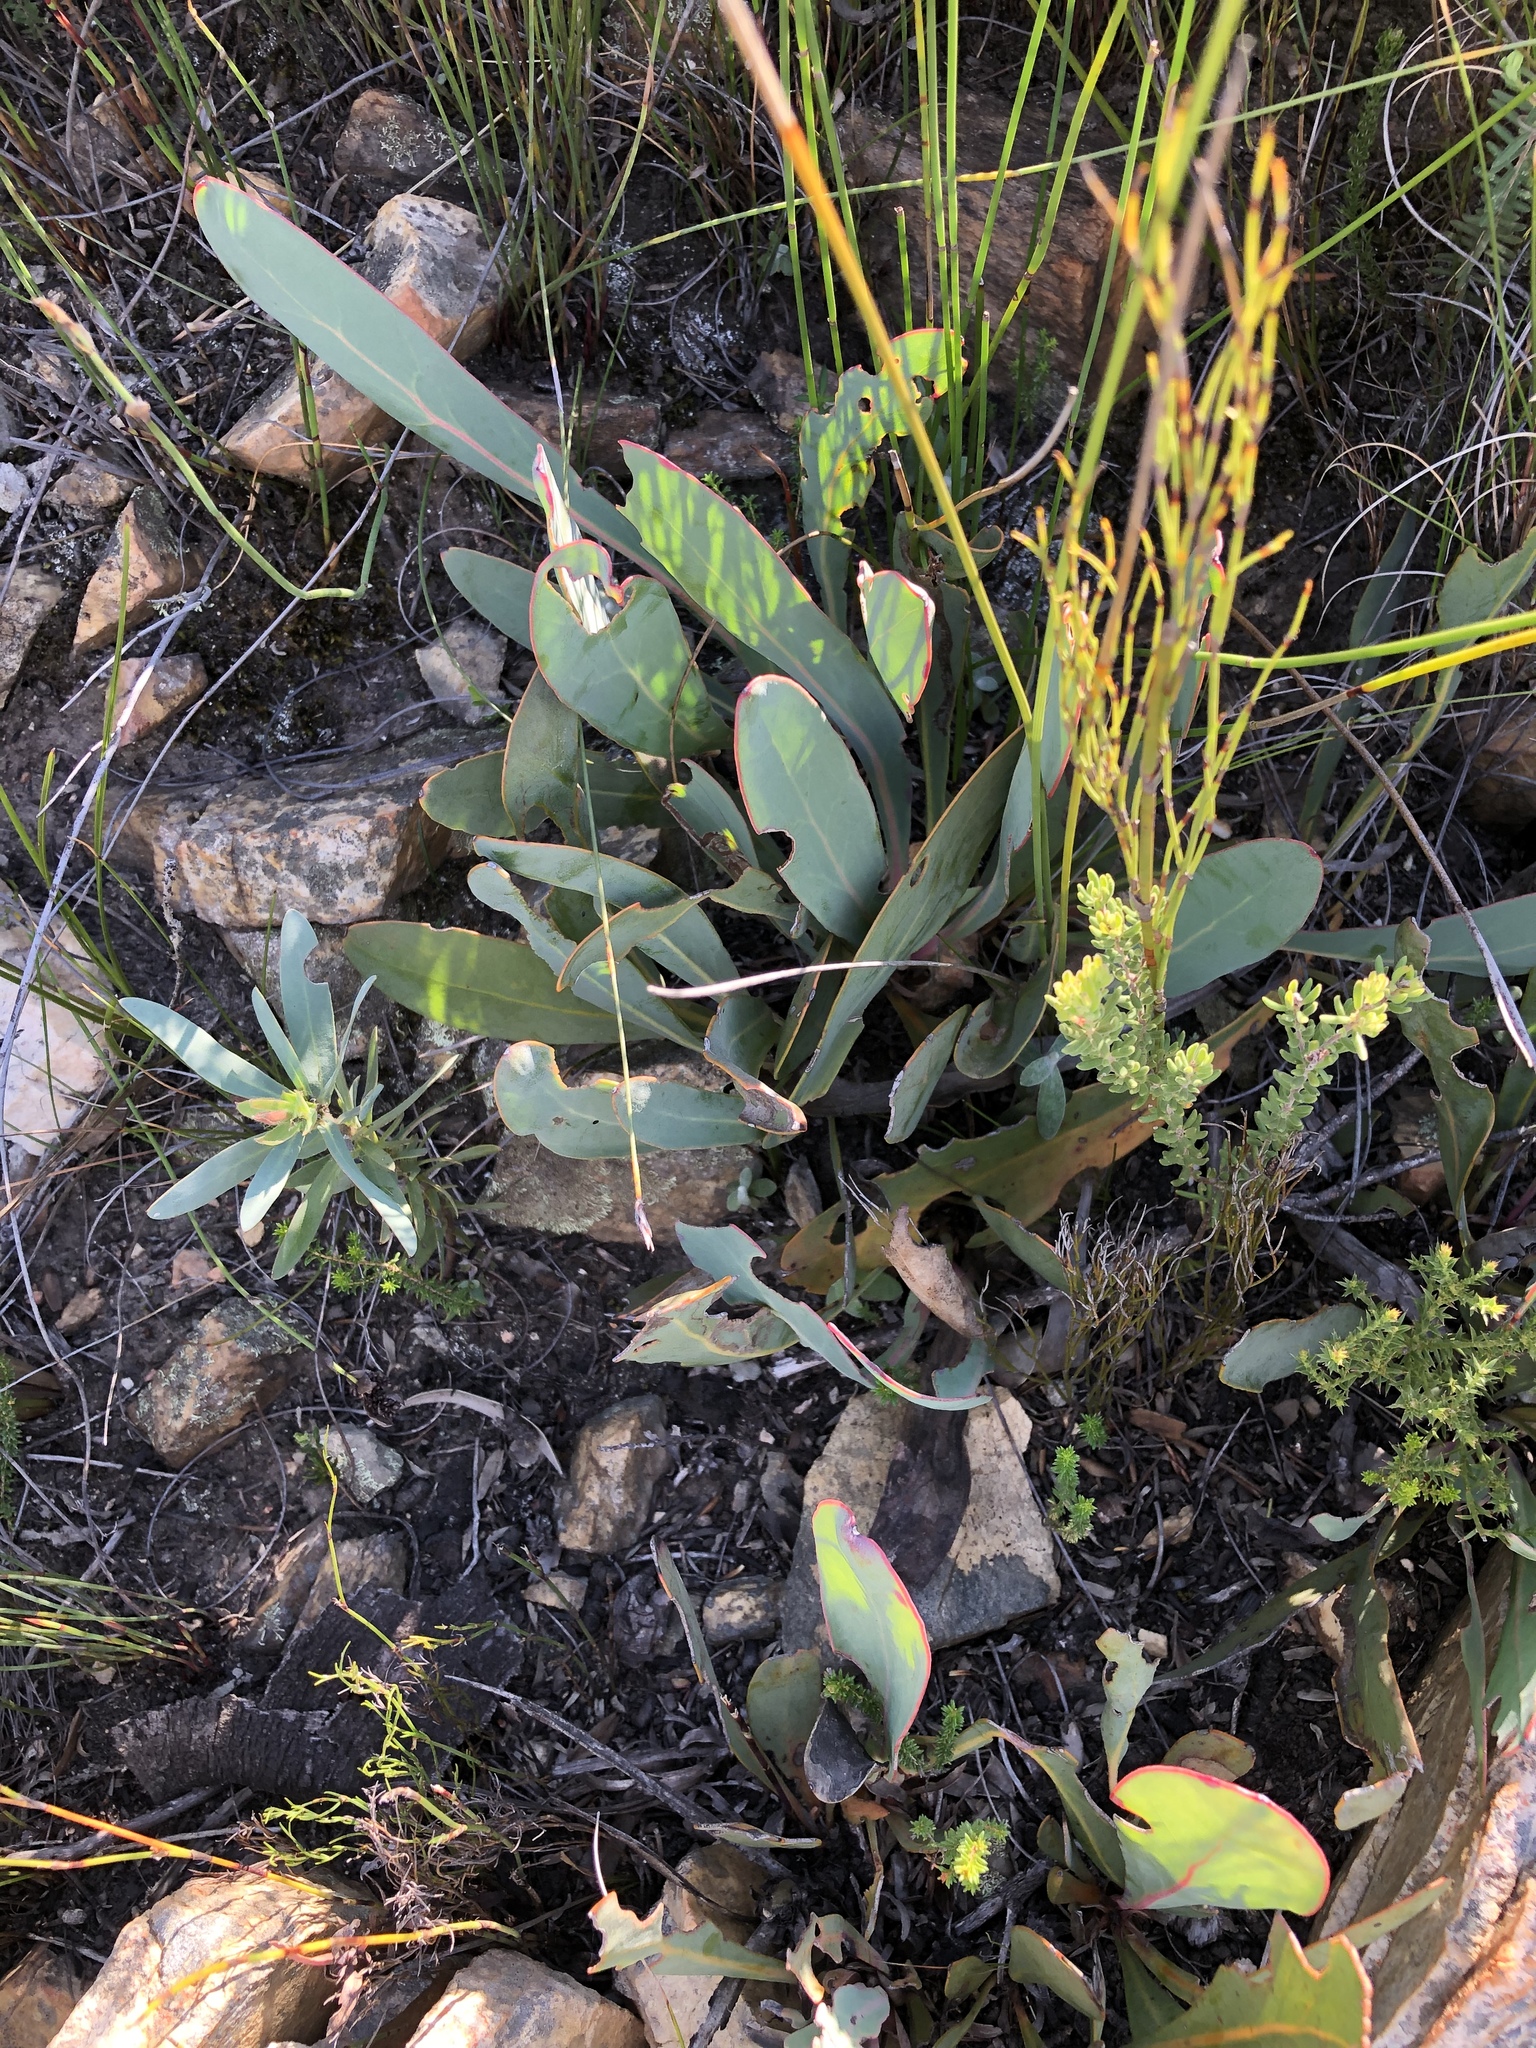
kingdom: Plantae
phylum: Tracheophyta
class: Magnoliopsida
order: Proteales
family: Proteaceae
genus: Protea
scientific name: Protea vogtsiae
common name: Kouga sugarbush
